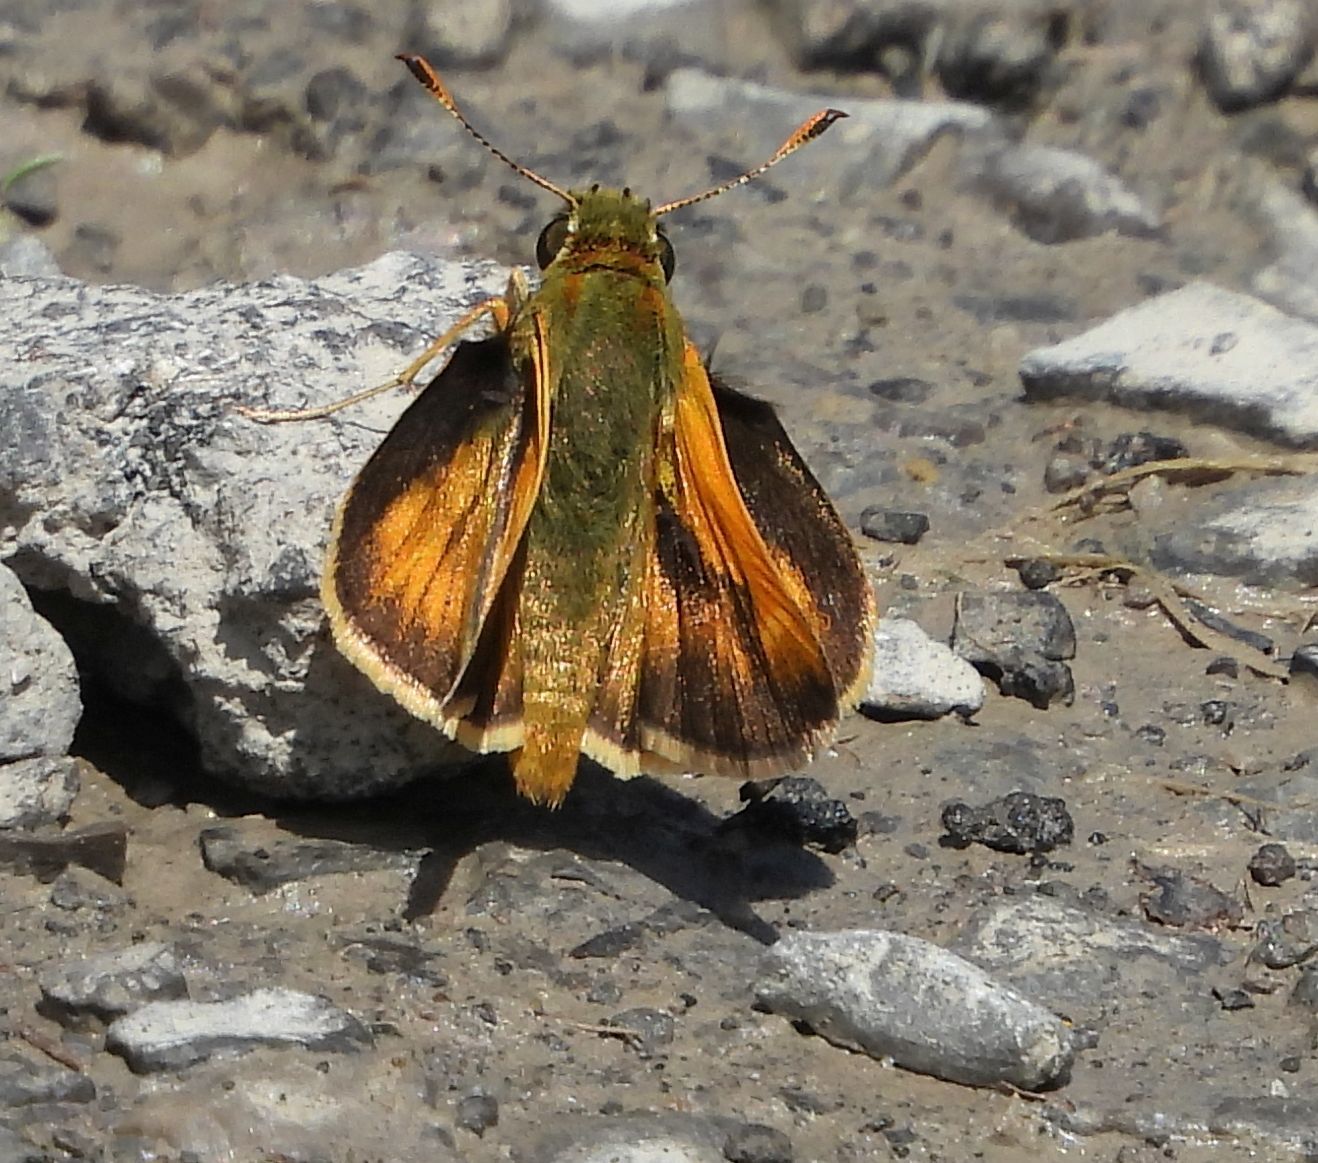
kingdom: Animalia
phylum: Arthropoda
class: Insecta
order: Lepidoptera
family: Hesperiidae
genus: Polites
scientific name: Polites mystic
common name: Long dash
